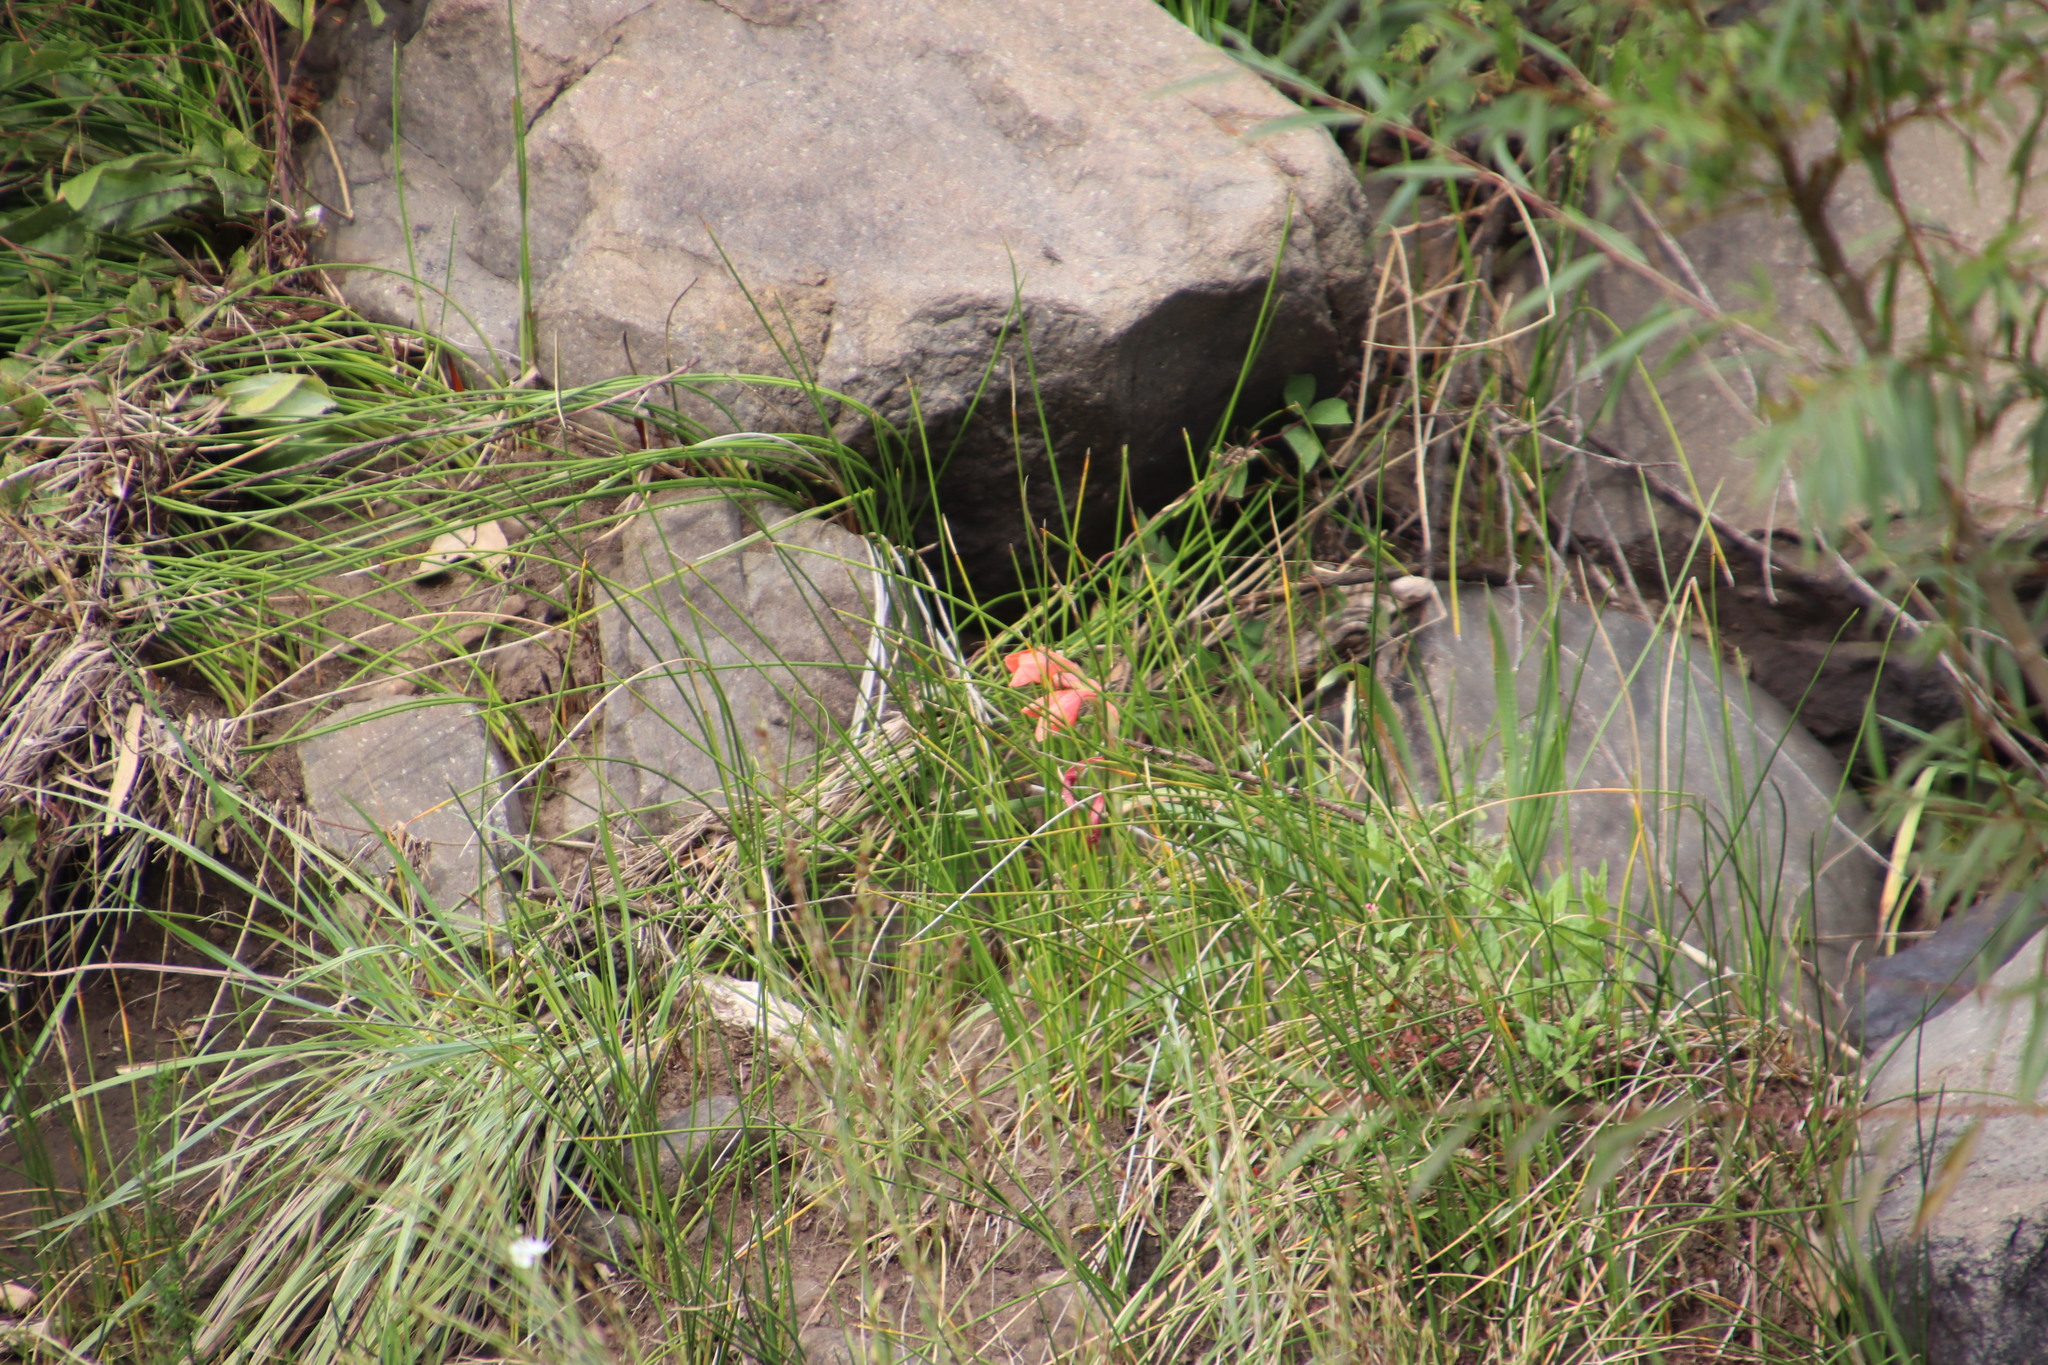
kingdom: Plantae
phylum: Tracheophyta
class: Liliopsida
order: Asparagales
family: Iridaceae
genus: Gladiolus
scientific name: Gladiolus dalenii
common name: Cornflag
